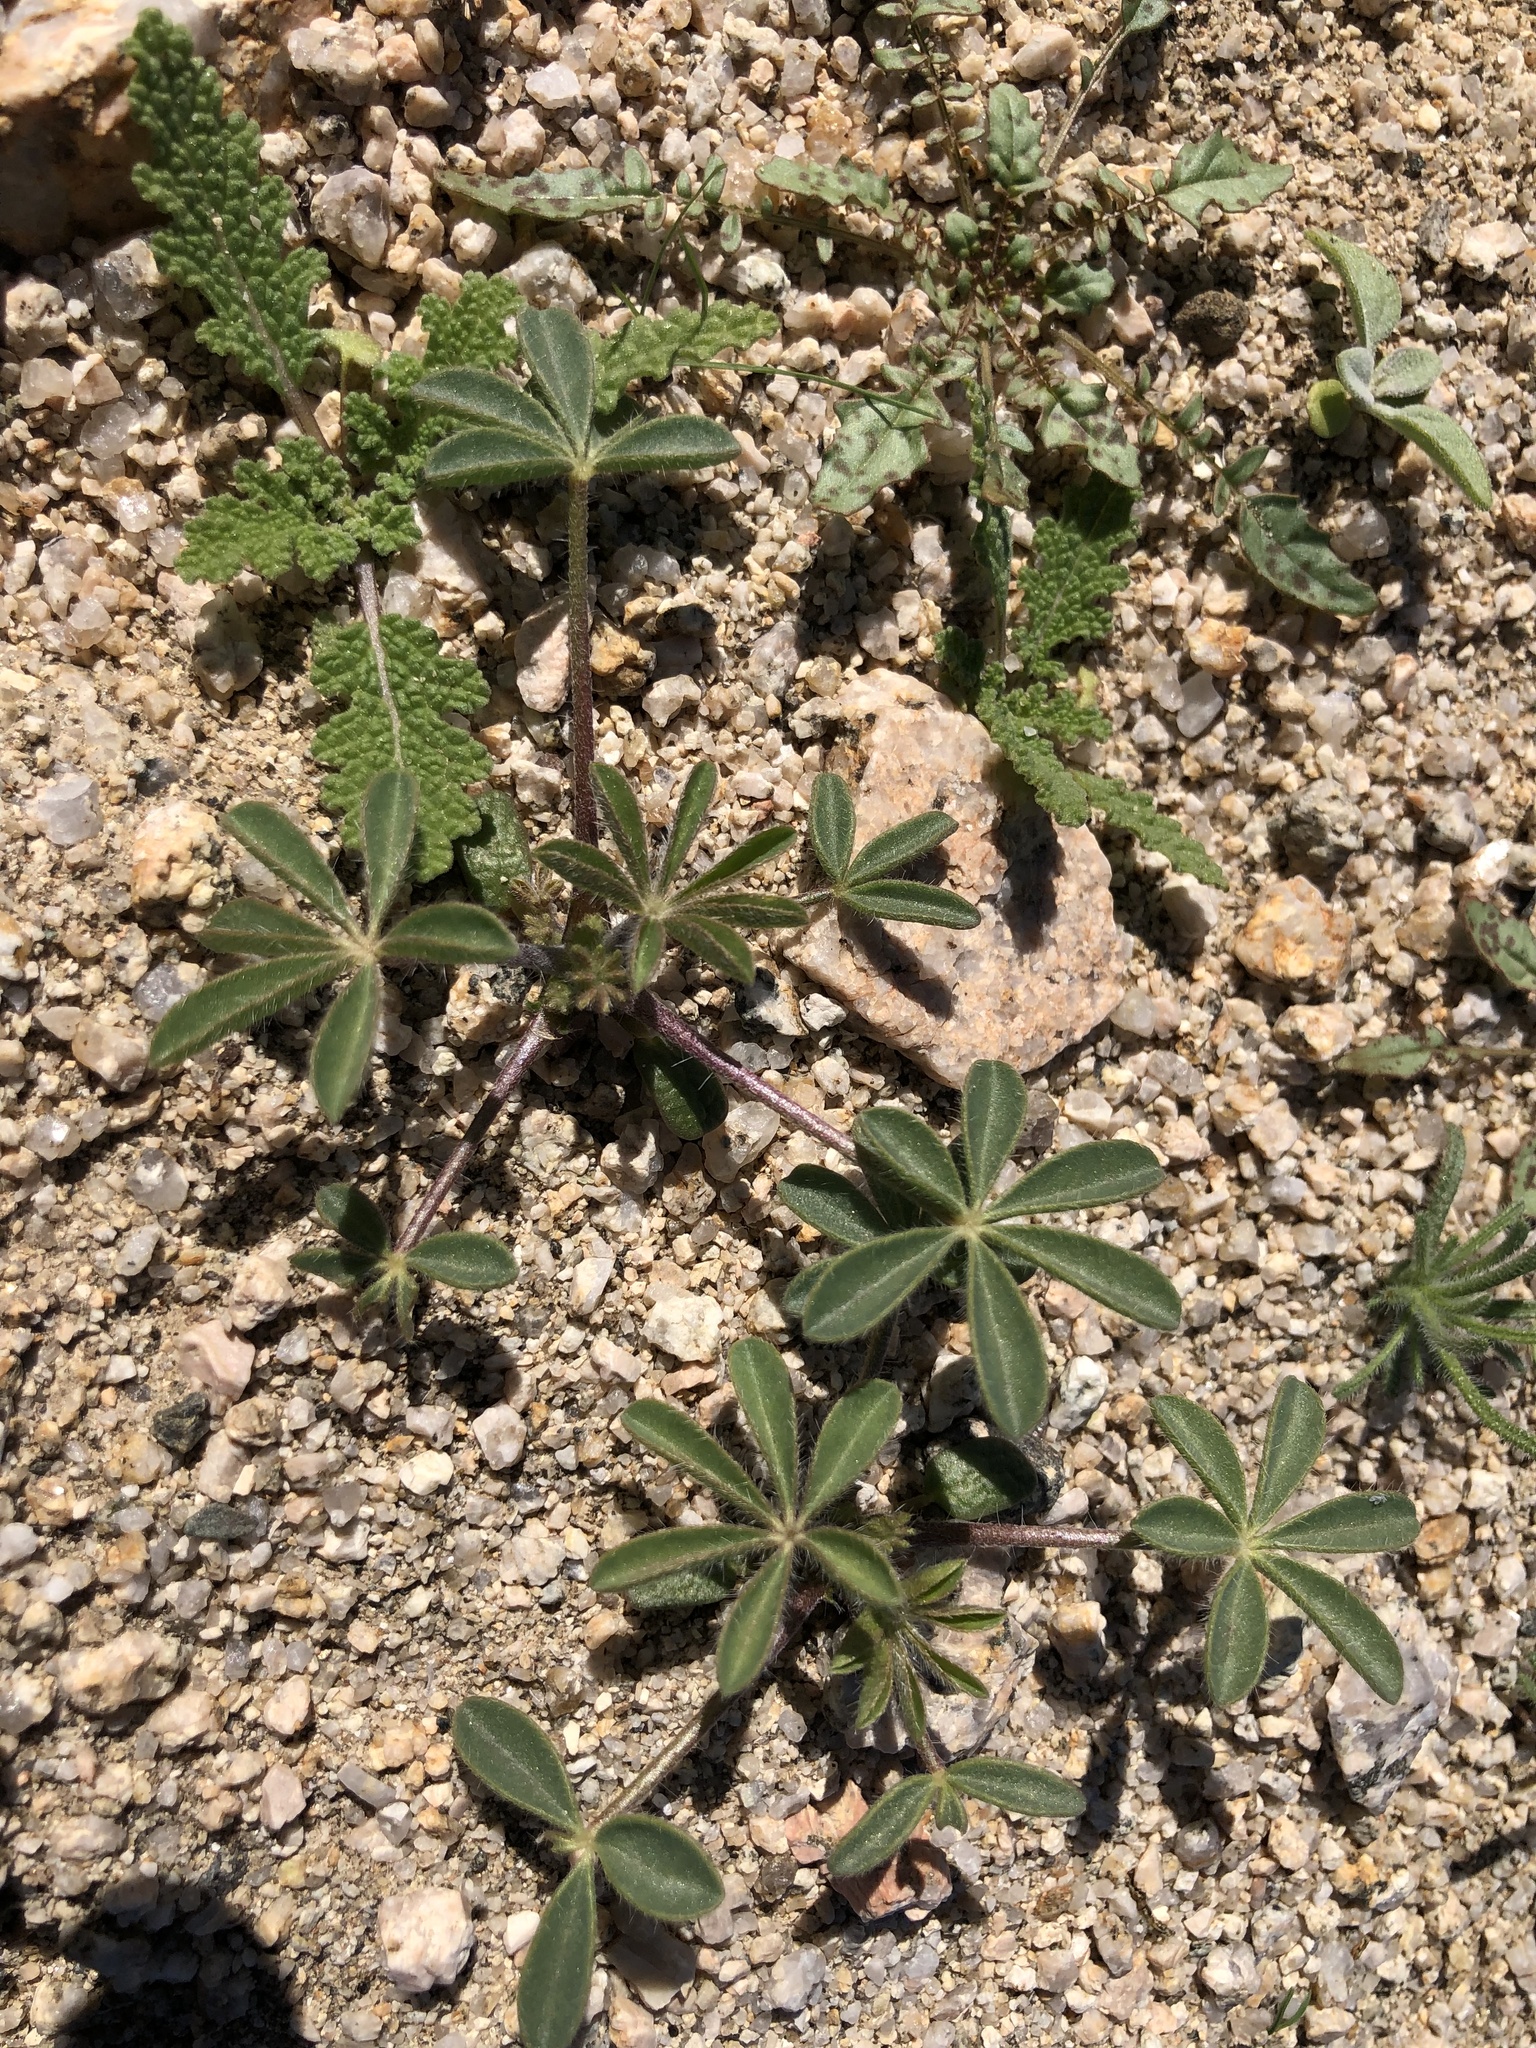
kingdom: Plantae
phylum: Tracheophyta
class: Magnoliopsida
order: Fabales
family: Fabaceae
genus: Lupinus
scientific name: Lupinus arizonicus
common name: Arizona lupine
